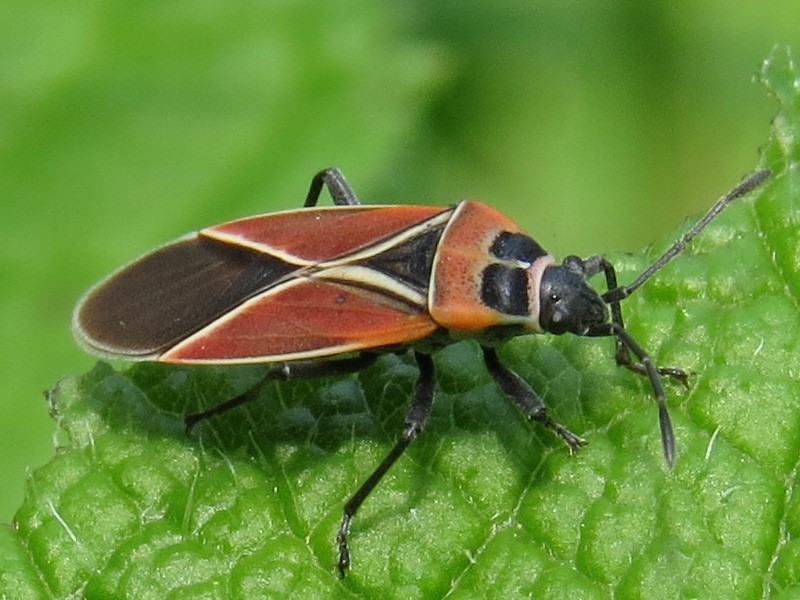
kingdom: Animalia
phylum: Arthropoda
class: Insecta
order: Hemiptera
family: Lygaeidae
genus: Neacoryphus
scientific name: Neacoryphus bicrucis
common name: Lygaeid bug
